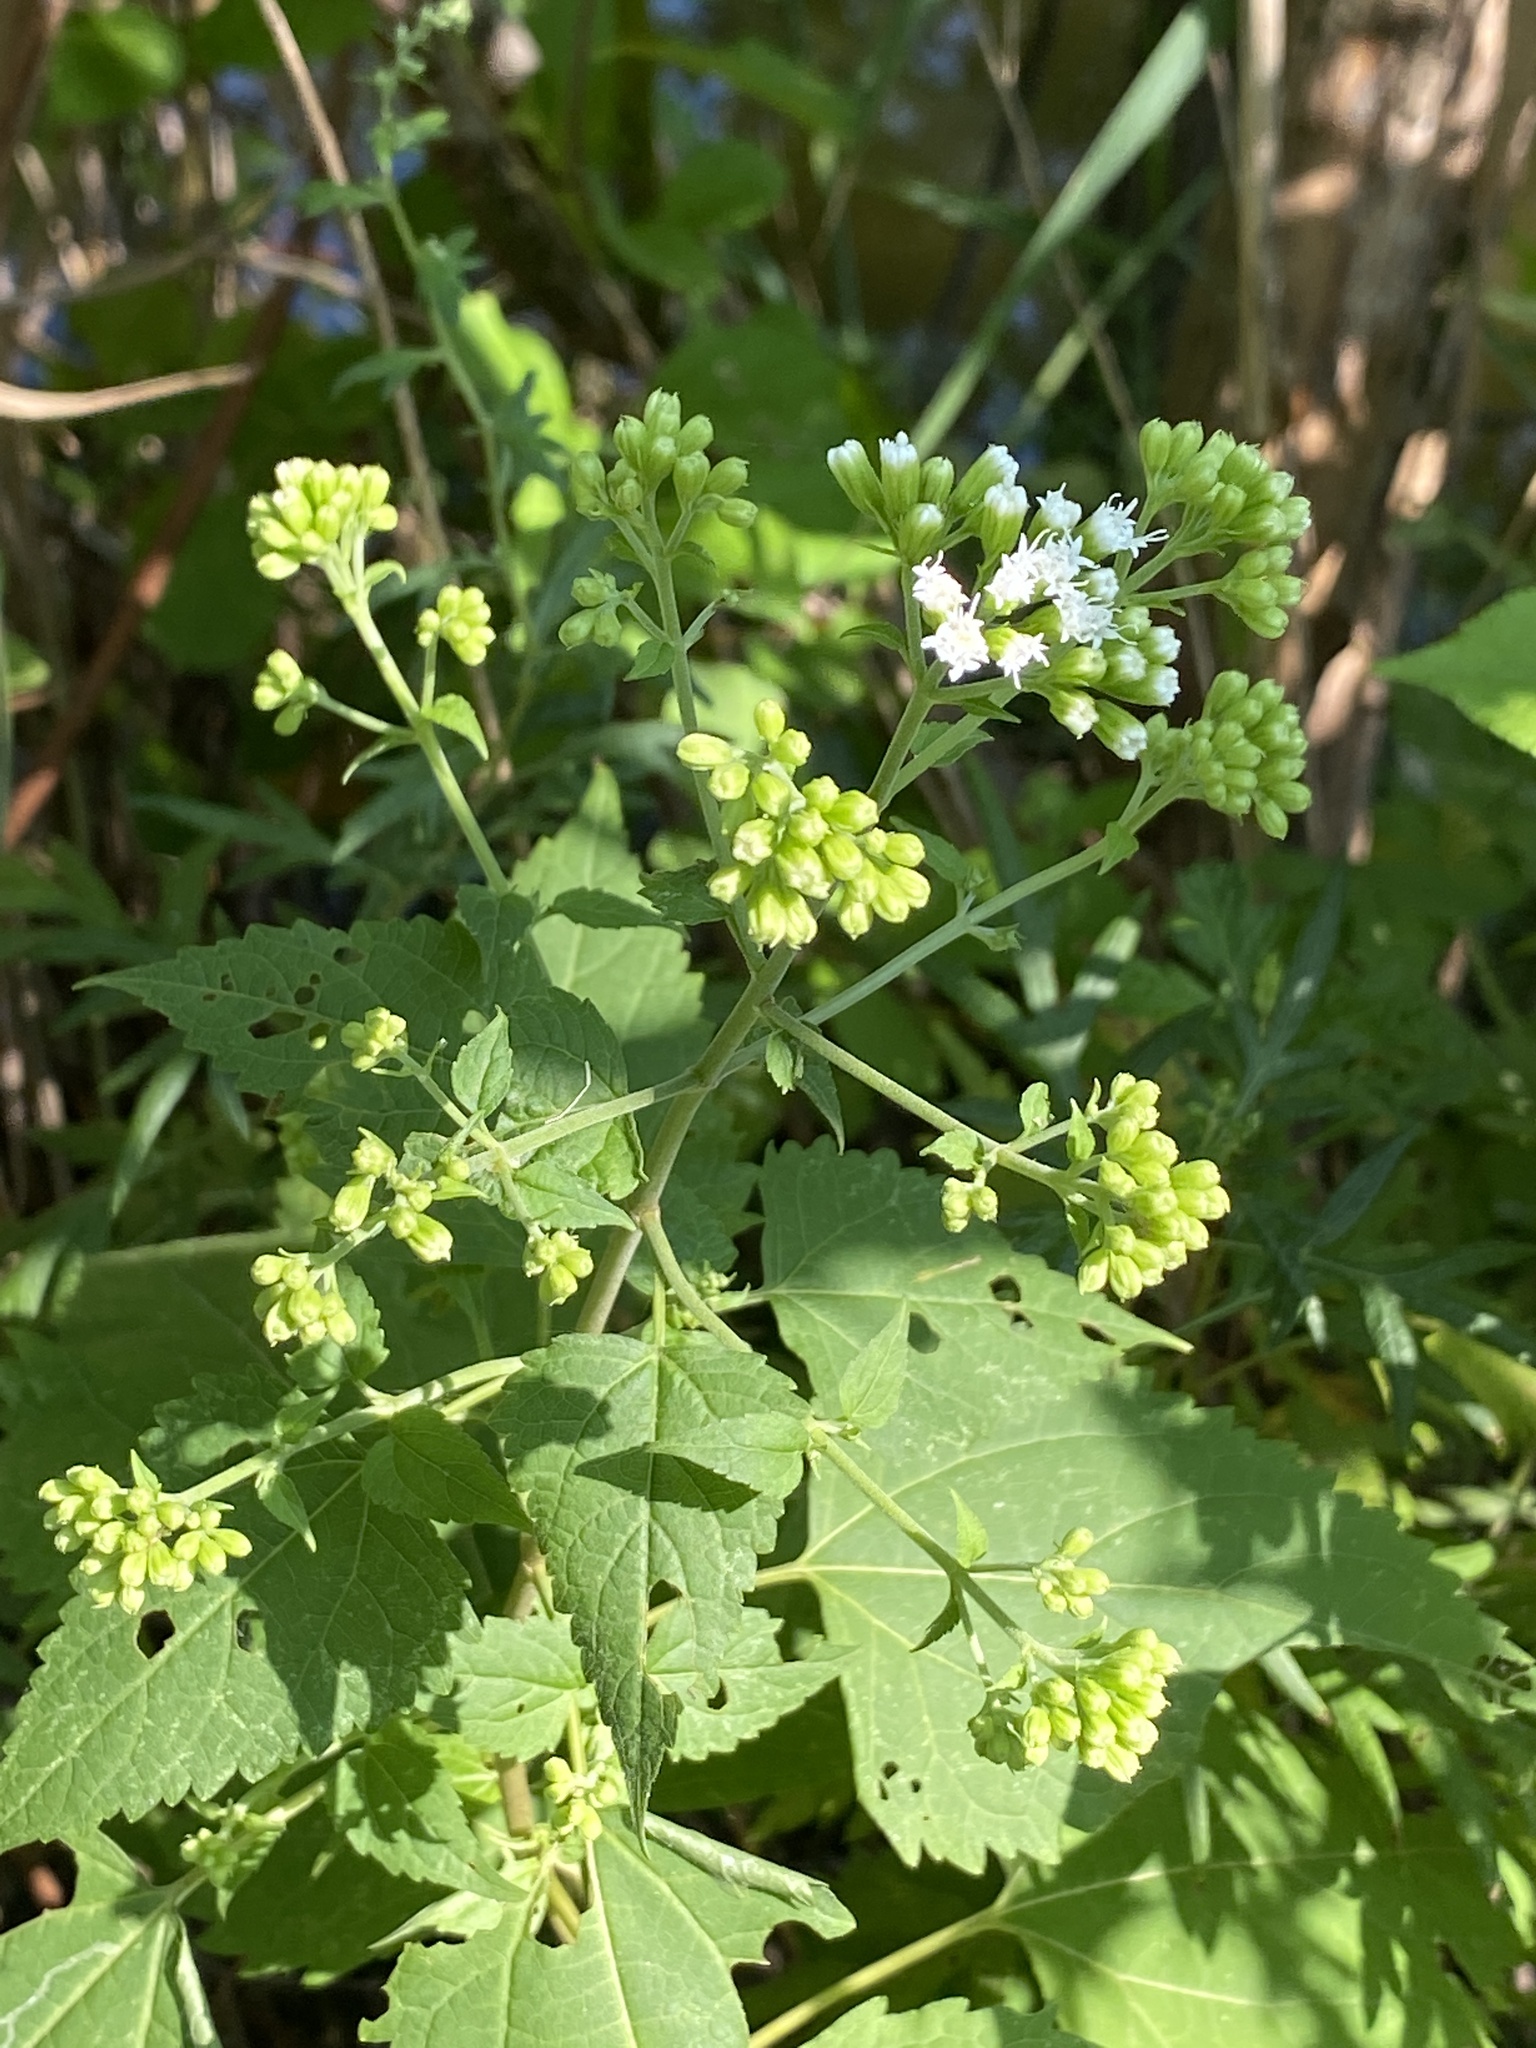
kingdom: Plantae
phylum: Tracheophyta
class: Magnoliopsida
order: Asterales
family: Asteraceae
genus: Ageratina
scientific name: Ageratina altissima
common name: White snakeroot
